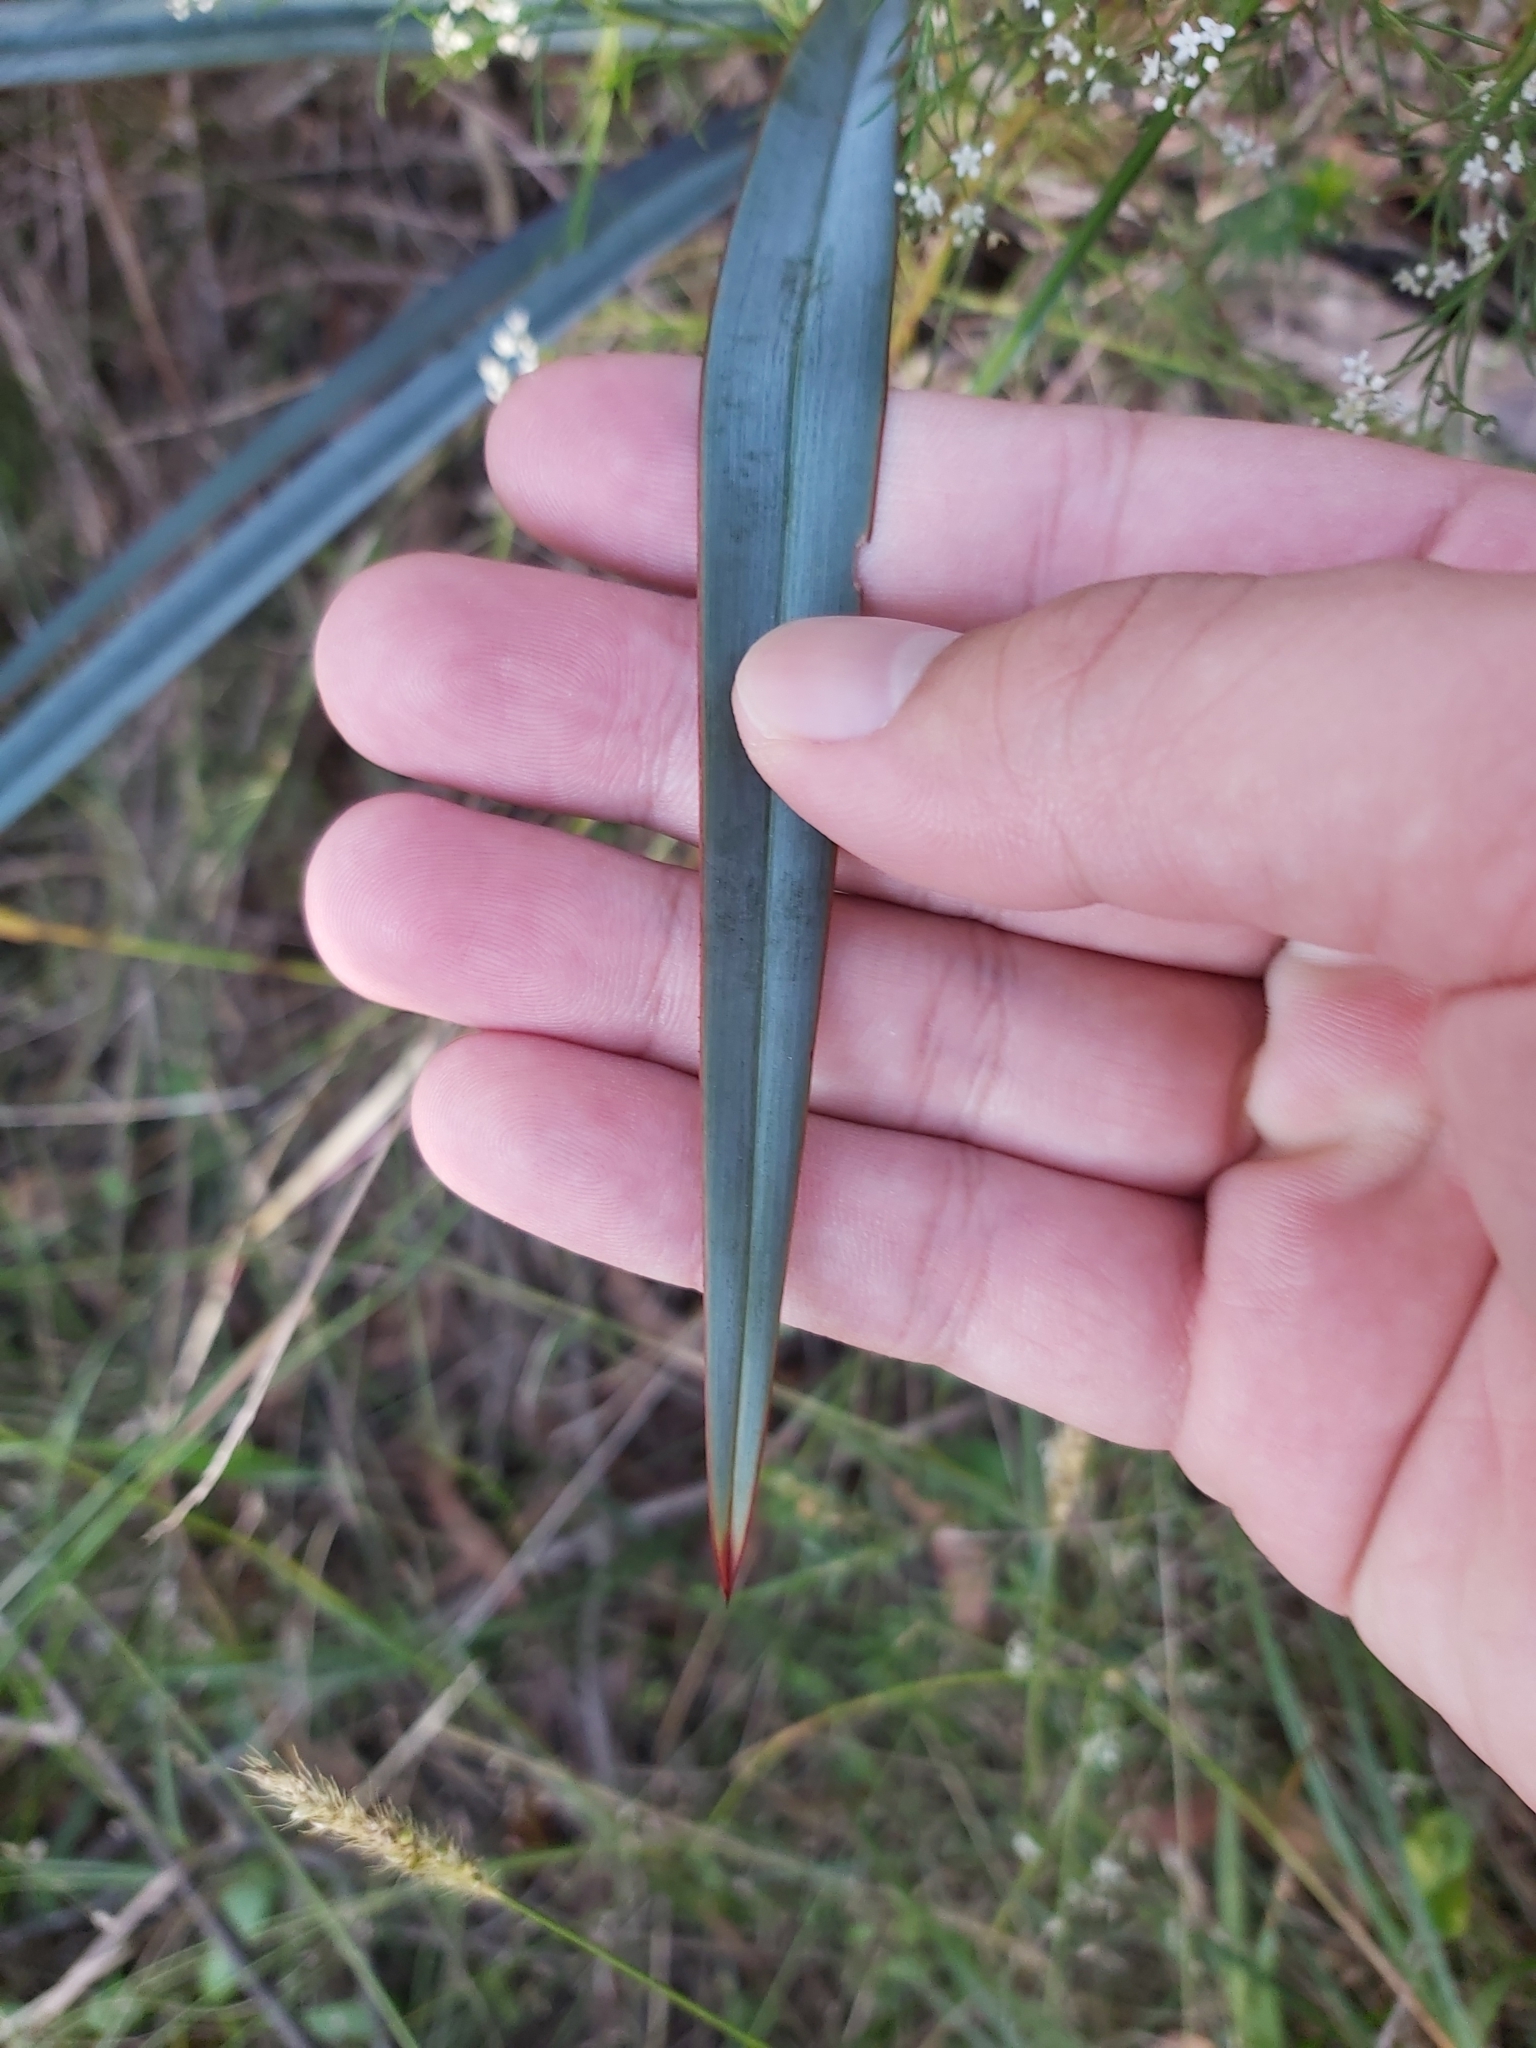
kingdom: Plantae
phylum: Tracheophyta
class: Liliopsida
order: Asparagales
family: Asphodelaceae
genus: Dianella
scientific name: Dianella prunina
